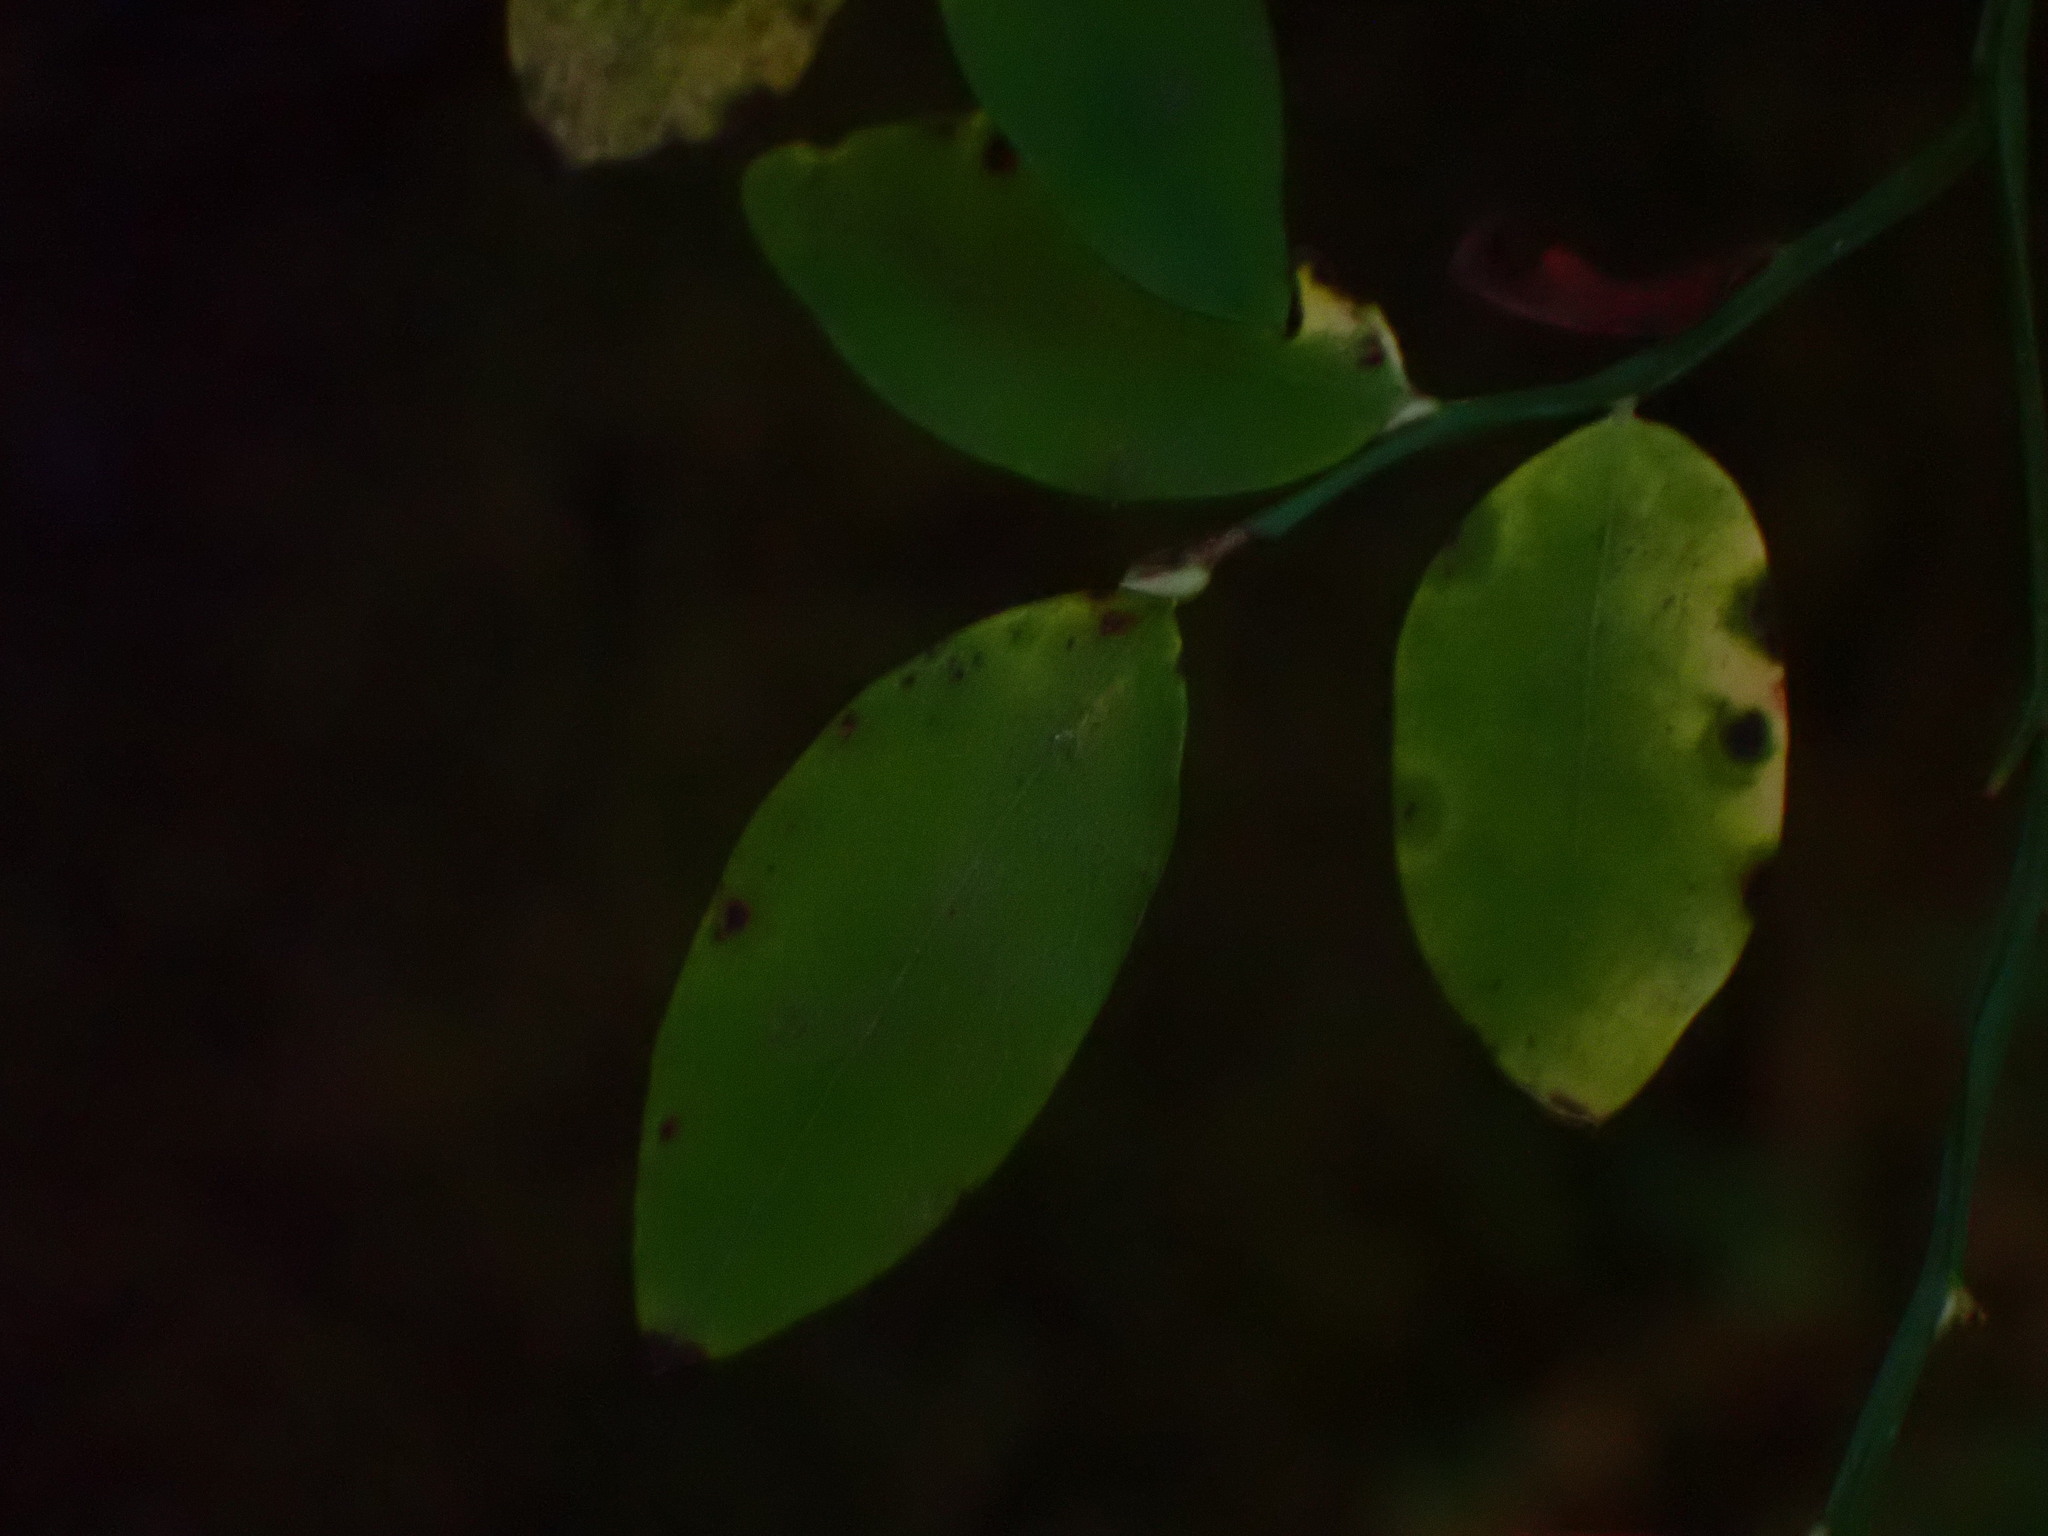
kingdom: Plantae
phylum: Tracheophyta
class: Magnoliopsida
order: Ericales
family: Ericaceae
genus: Vaccinium
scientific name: Vaccinium parvifolium
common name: Red-huckleberry
